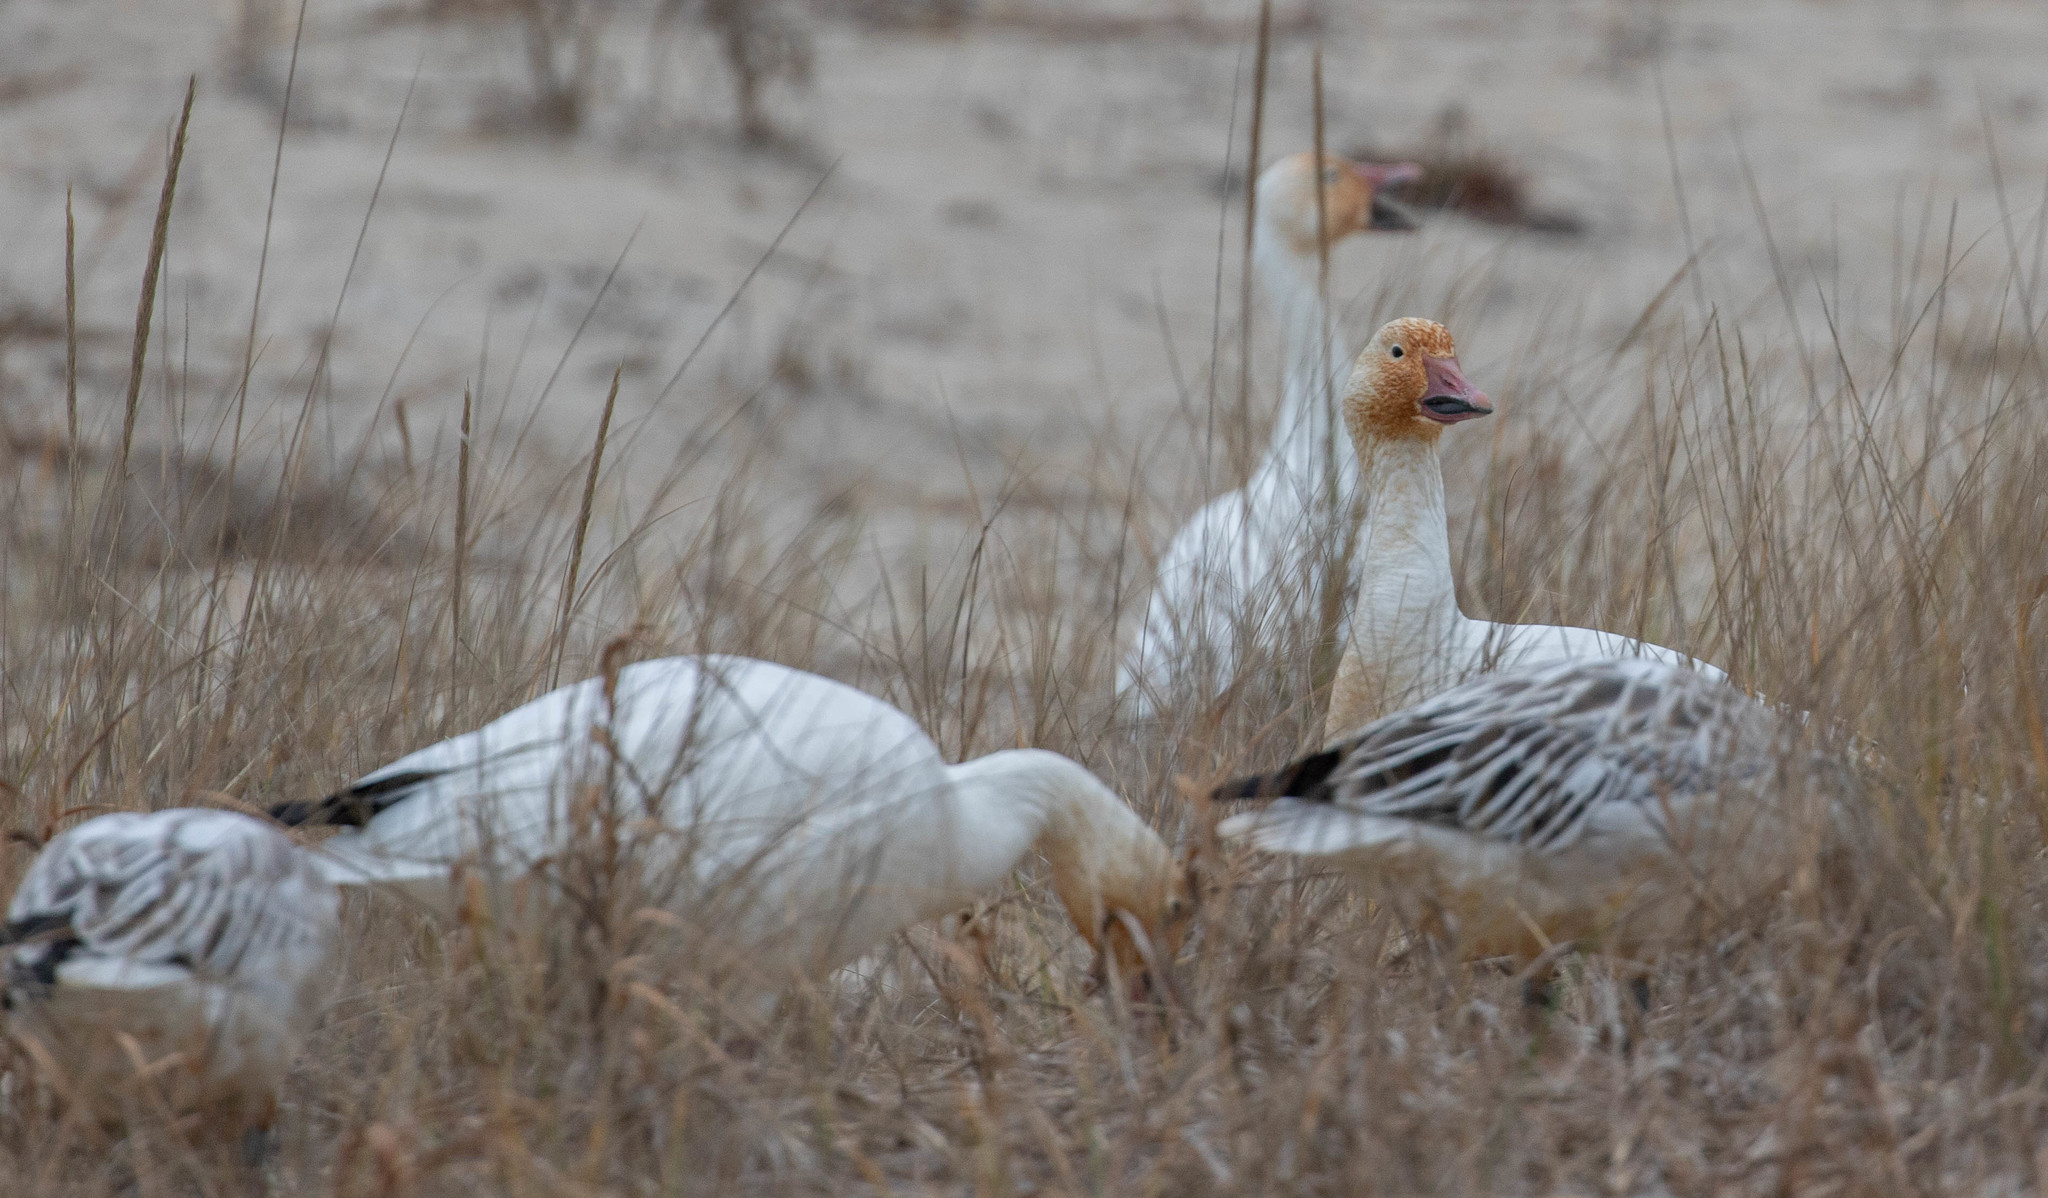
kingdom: Animalia
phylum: Chordata
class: Aves
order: Anseriformes
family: Anatidae
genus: Anser
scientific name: Anser caerulescens
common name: Snow goose
